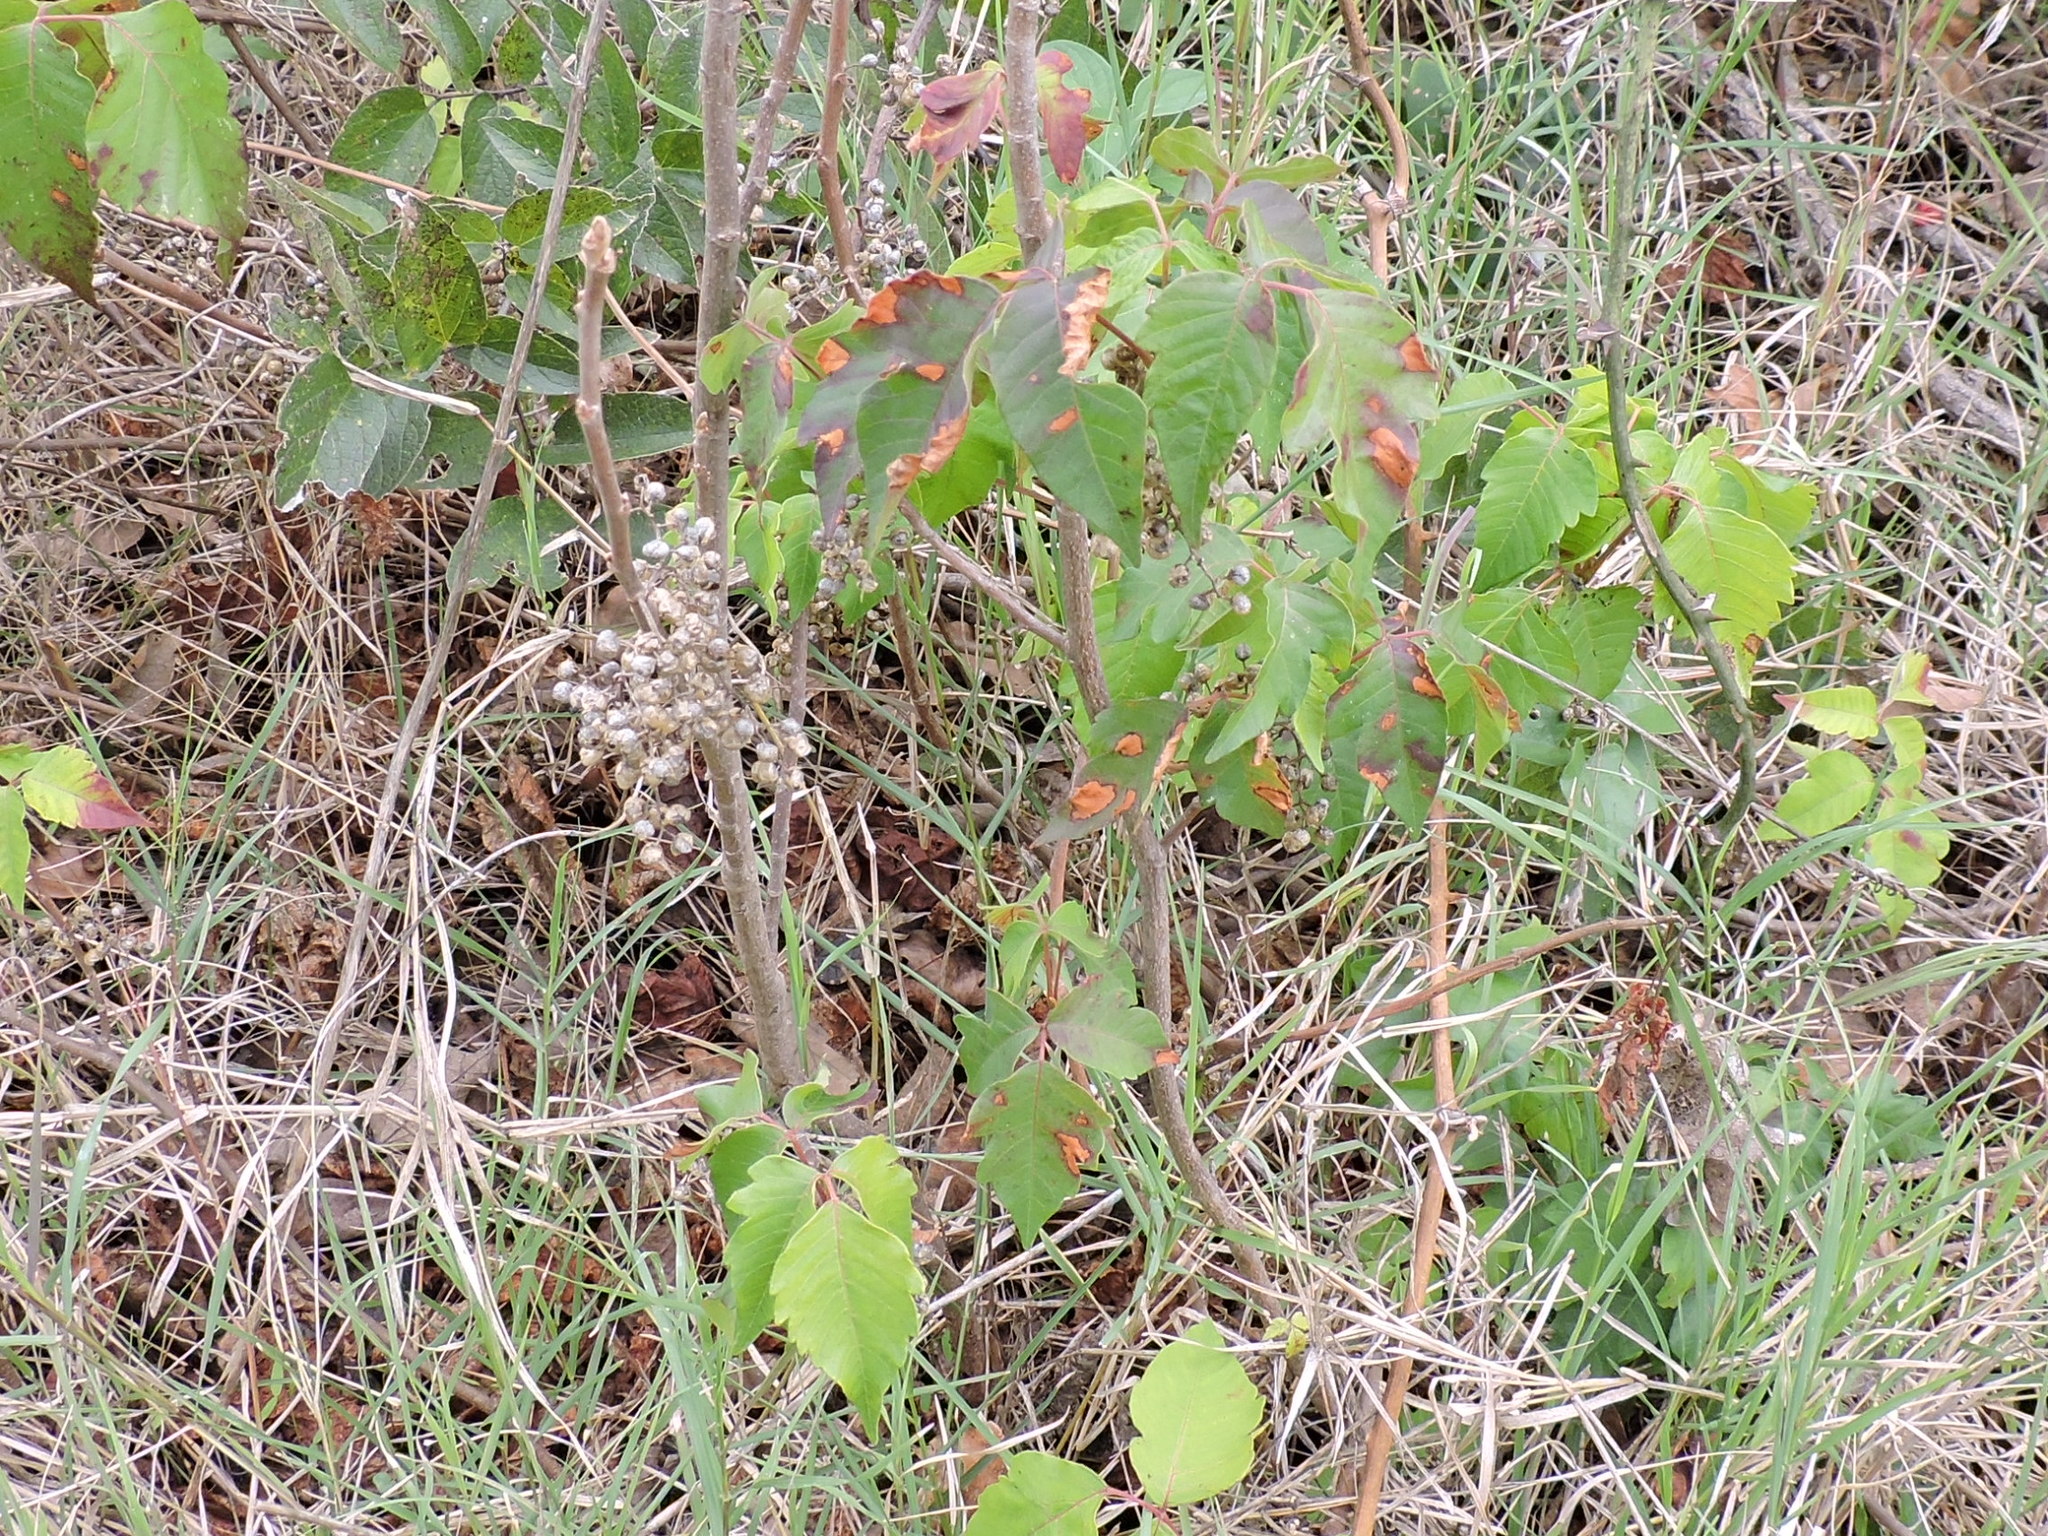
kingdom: Plantae
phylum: Tracheophyta
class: Magnoliopsida
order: Sapindales
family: Anacardiaceae
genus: Toxicodendron
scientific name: Toxicodendron radicans
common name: Poison ivy
